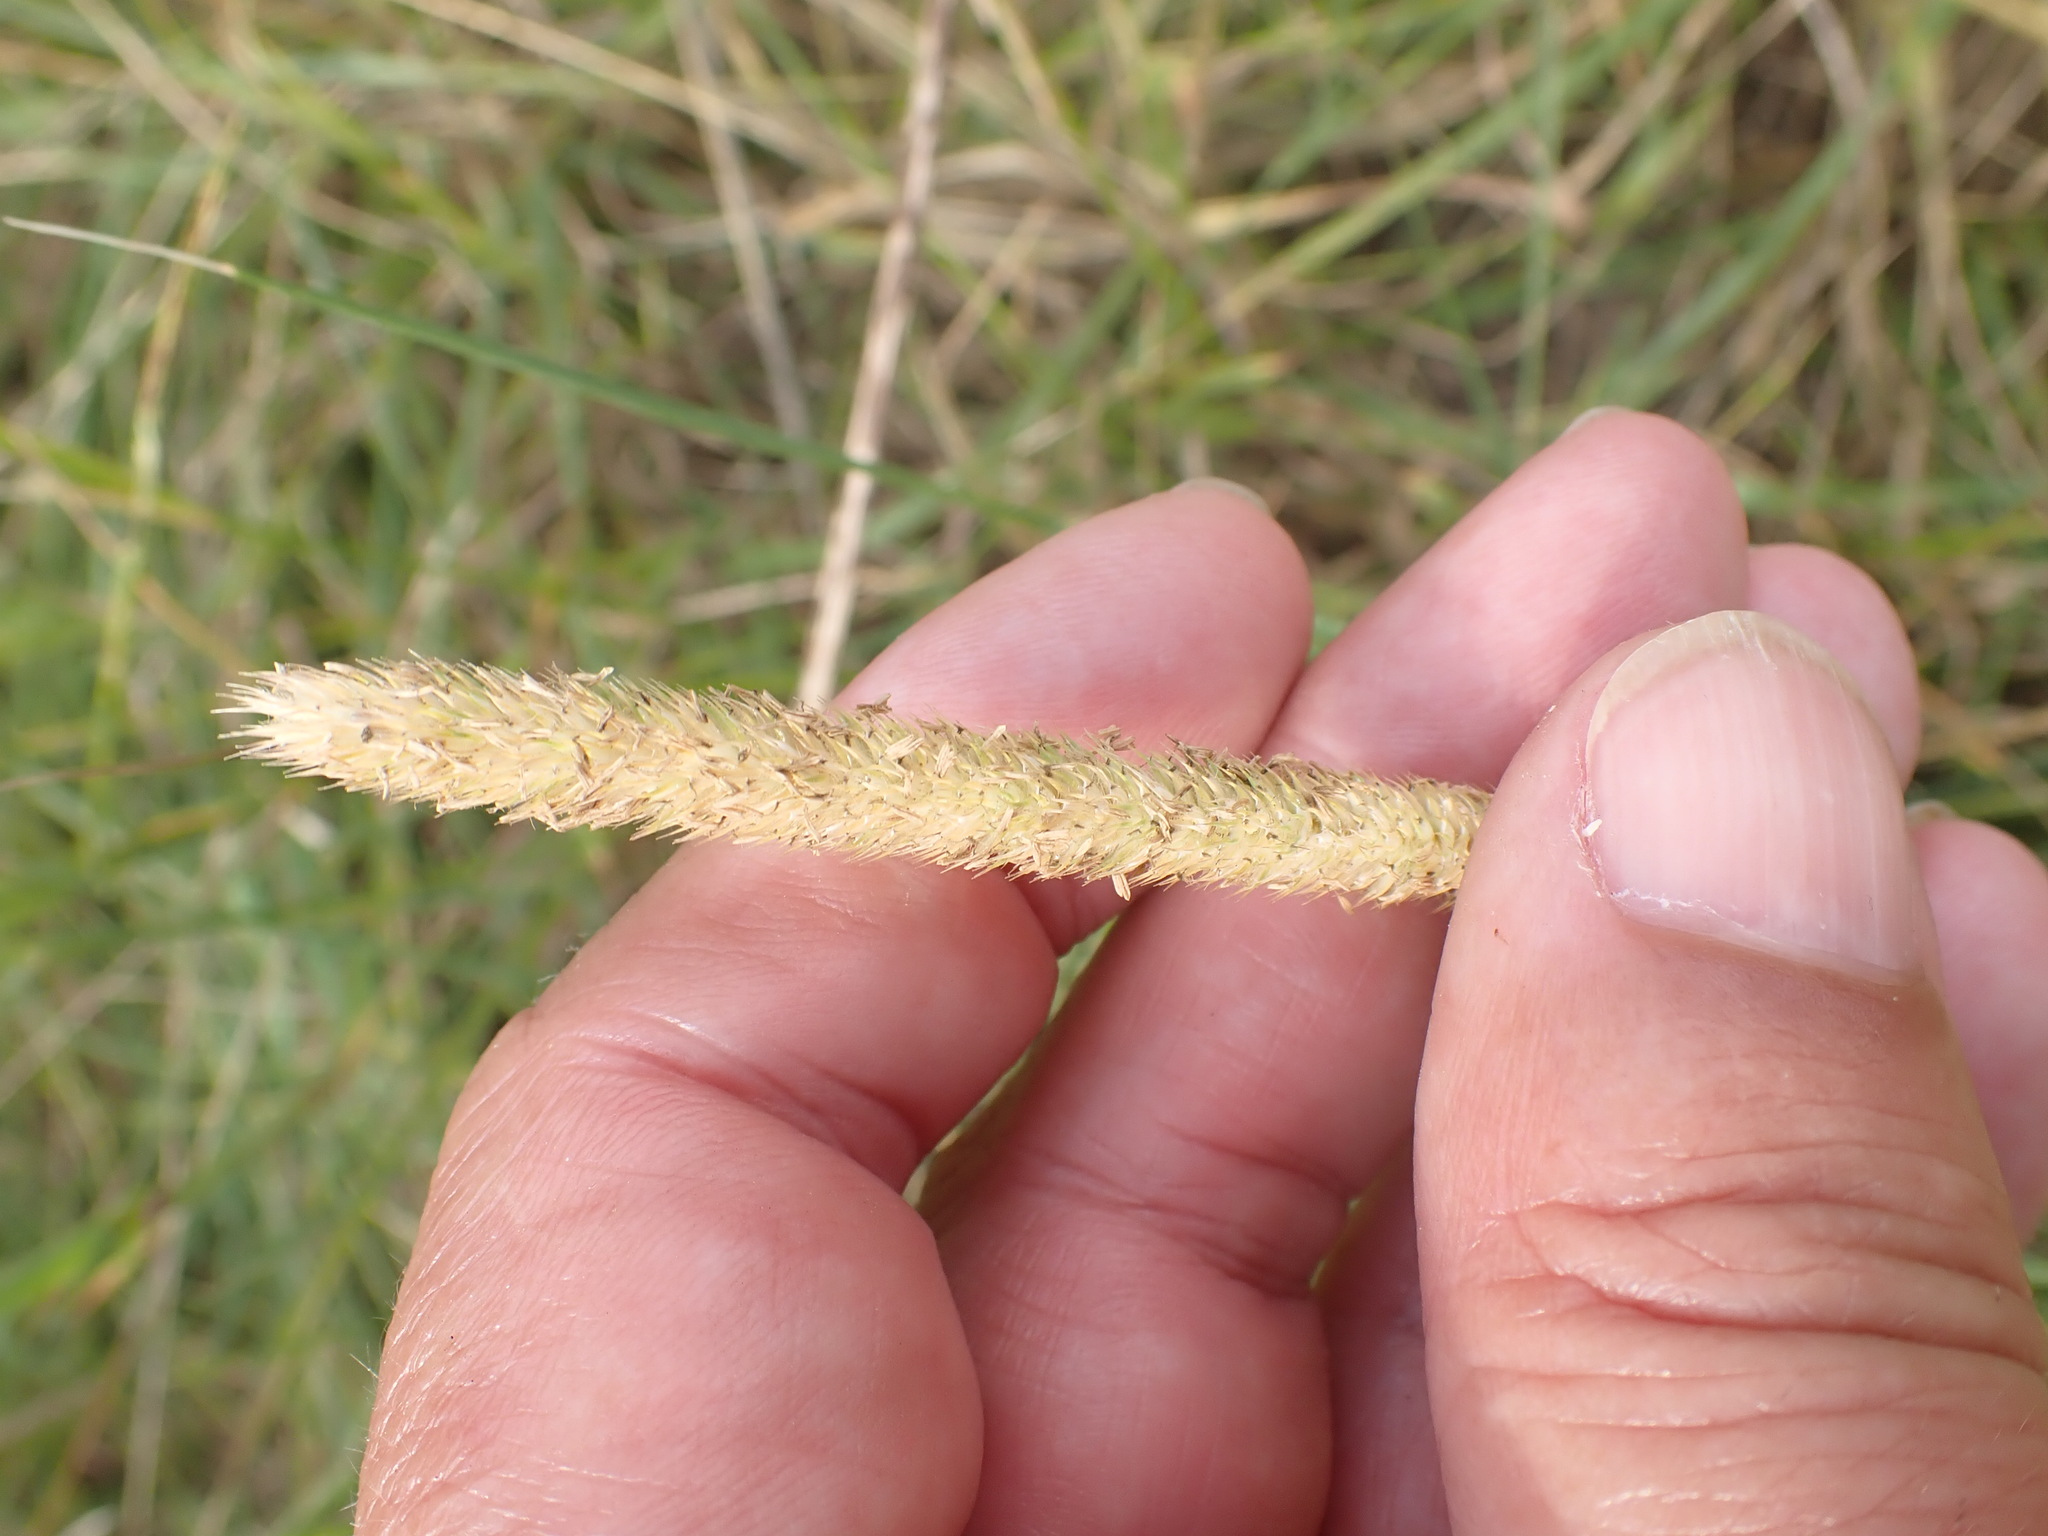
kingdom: Plantae
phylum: Tracheophyta
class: Liliopsida
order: Poales
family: Poaceae
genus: Phleum
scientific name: Phleum pratense
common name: Timothy grass
